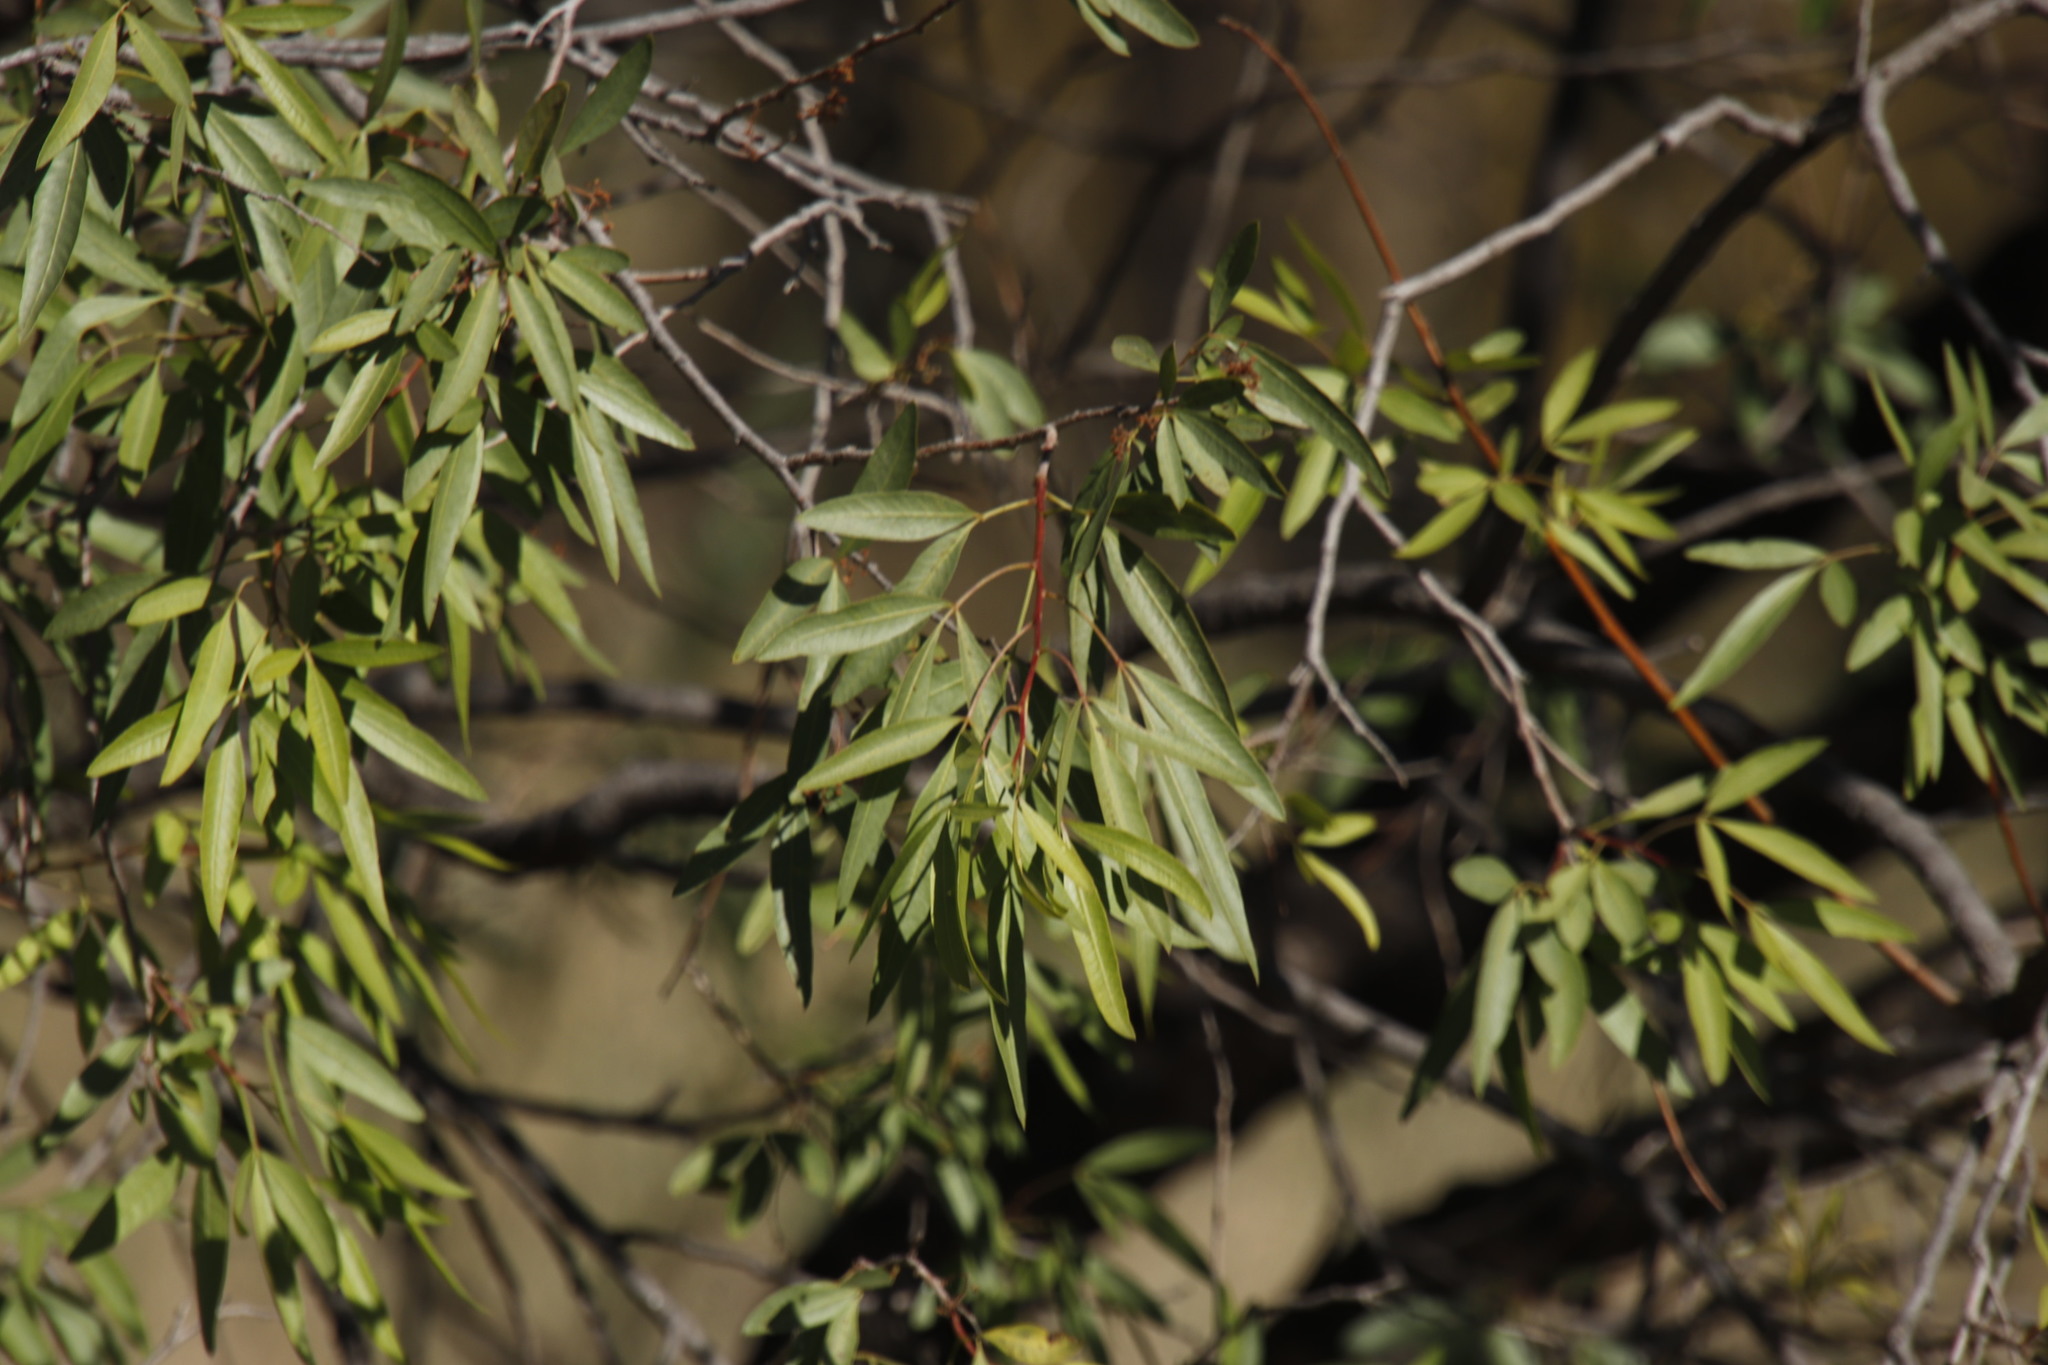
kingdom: Plantae
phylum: Tracheophyta
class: Magnoliopsida
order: Sapindales
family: Anacardiaceae
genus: Searsia
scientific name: Searsia pendulina
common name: White karee
